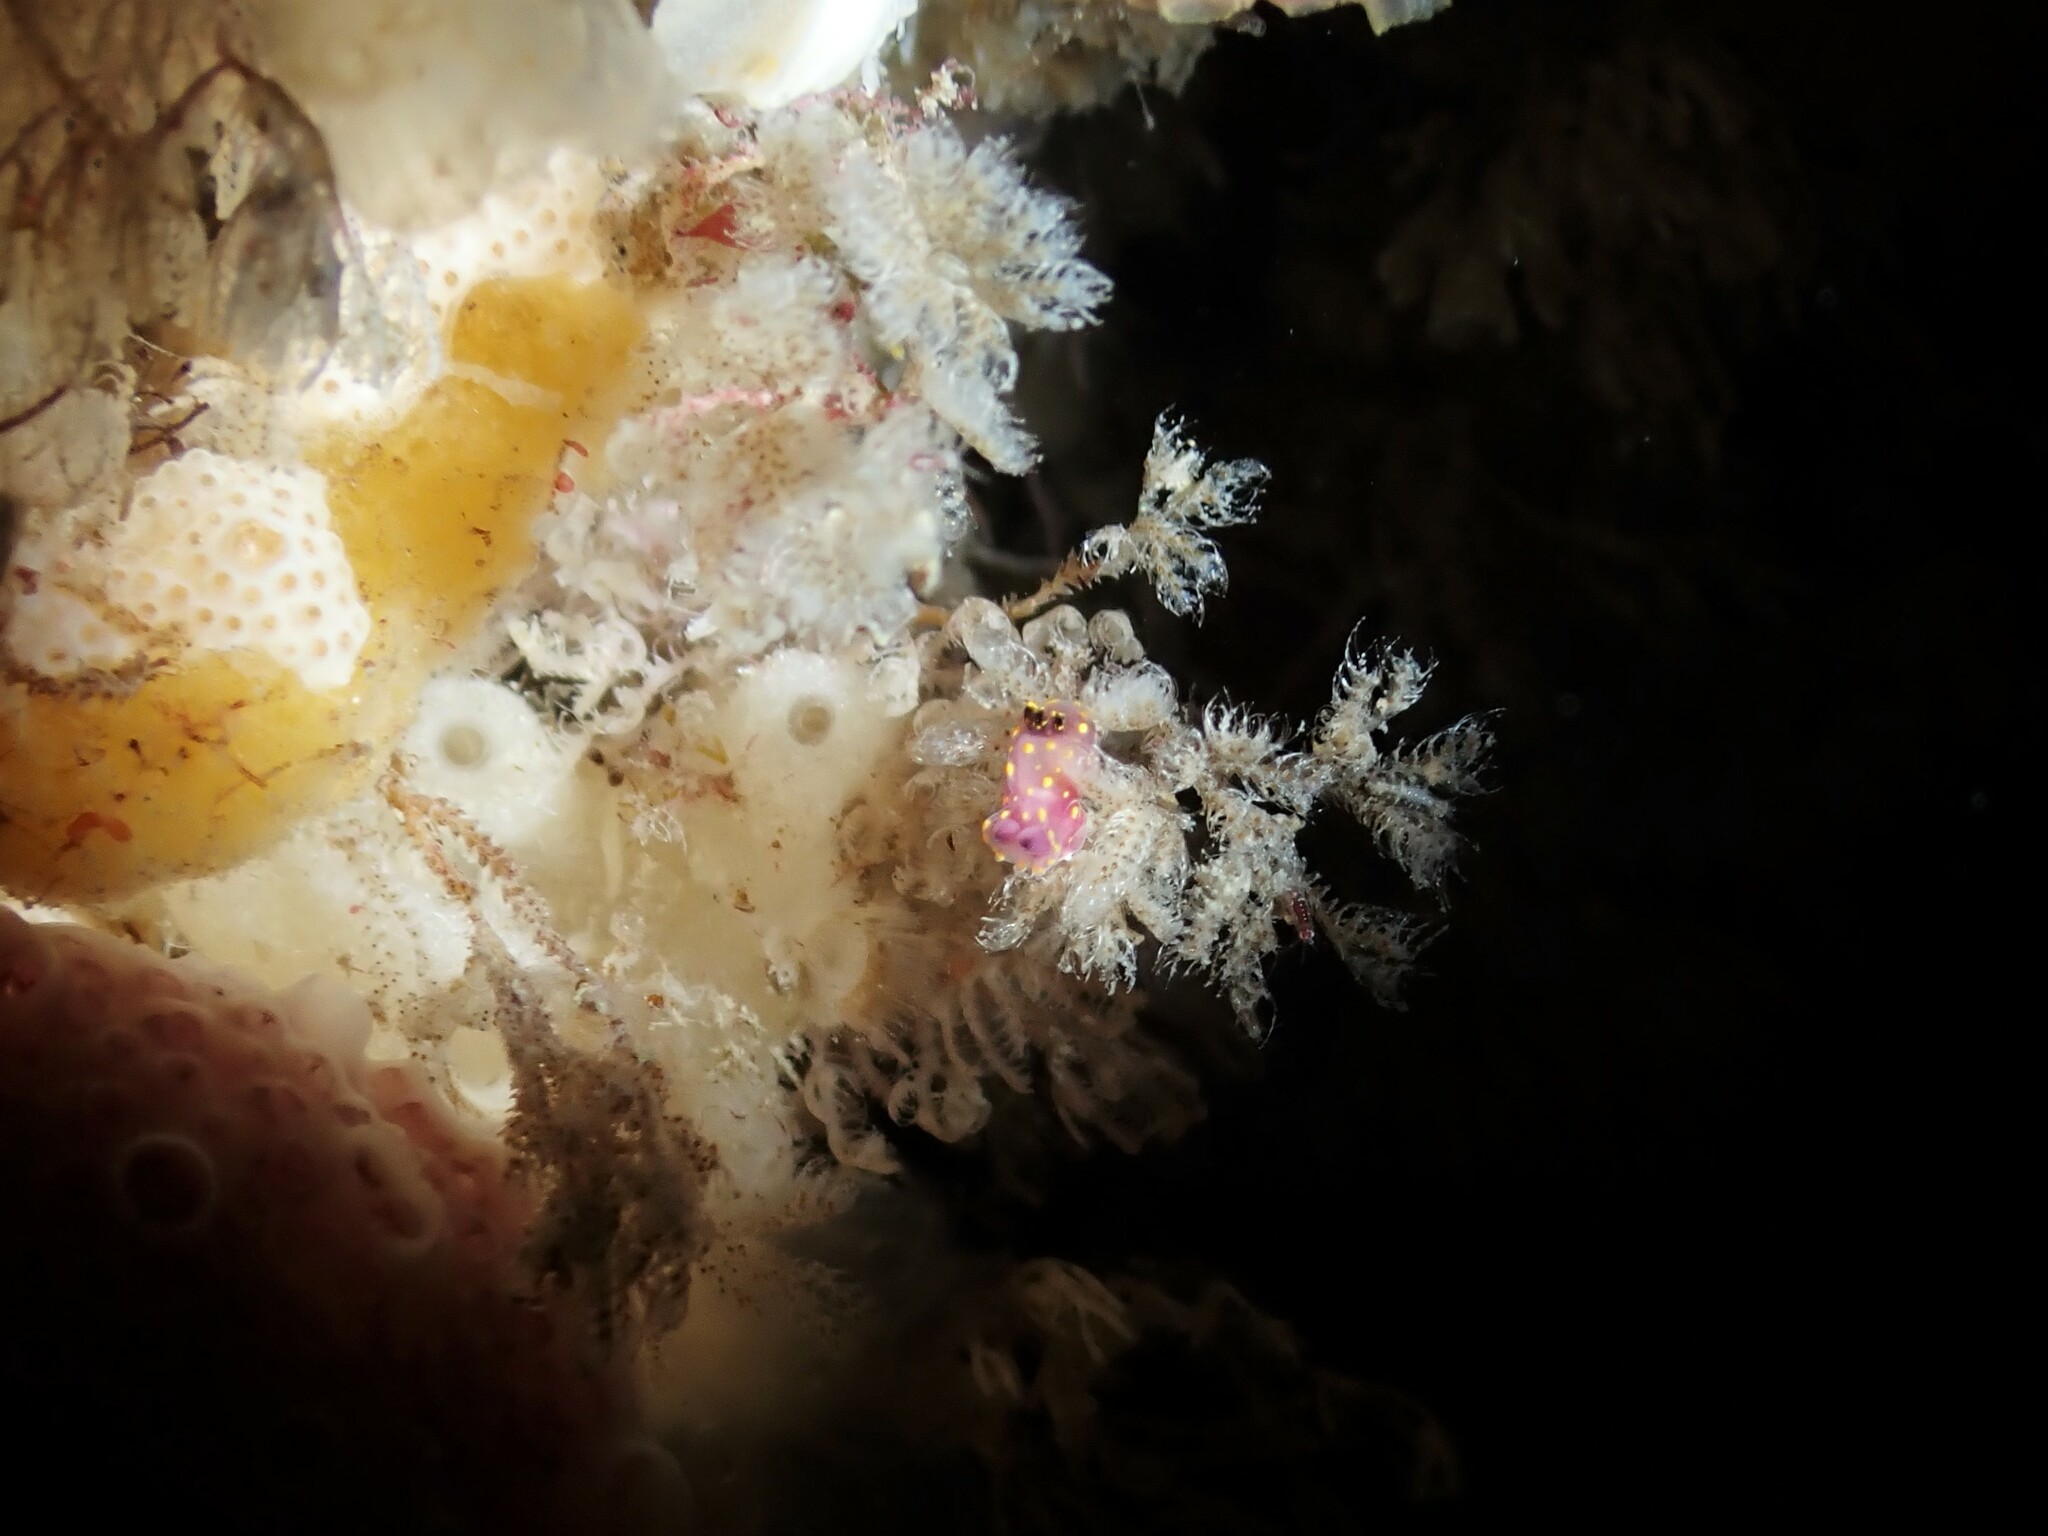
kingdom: Animalia
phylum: Mollusca
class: Gastropoda
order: Nudibranchia
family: Polyceridae
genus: Polycera
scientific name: Polycera maddoxi
